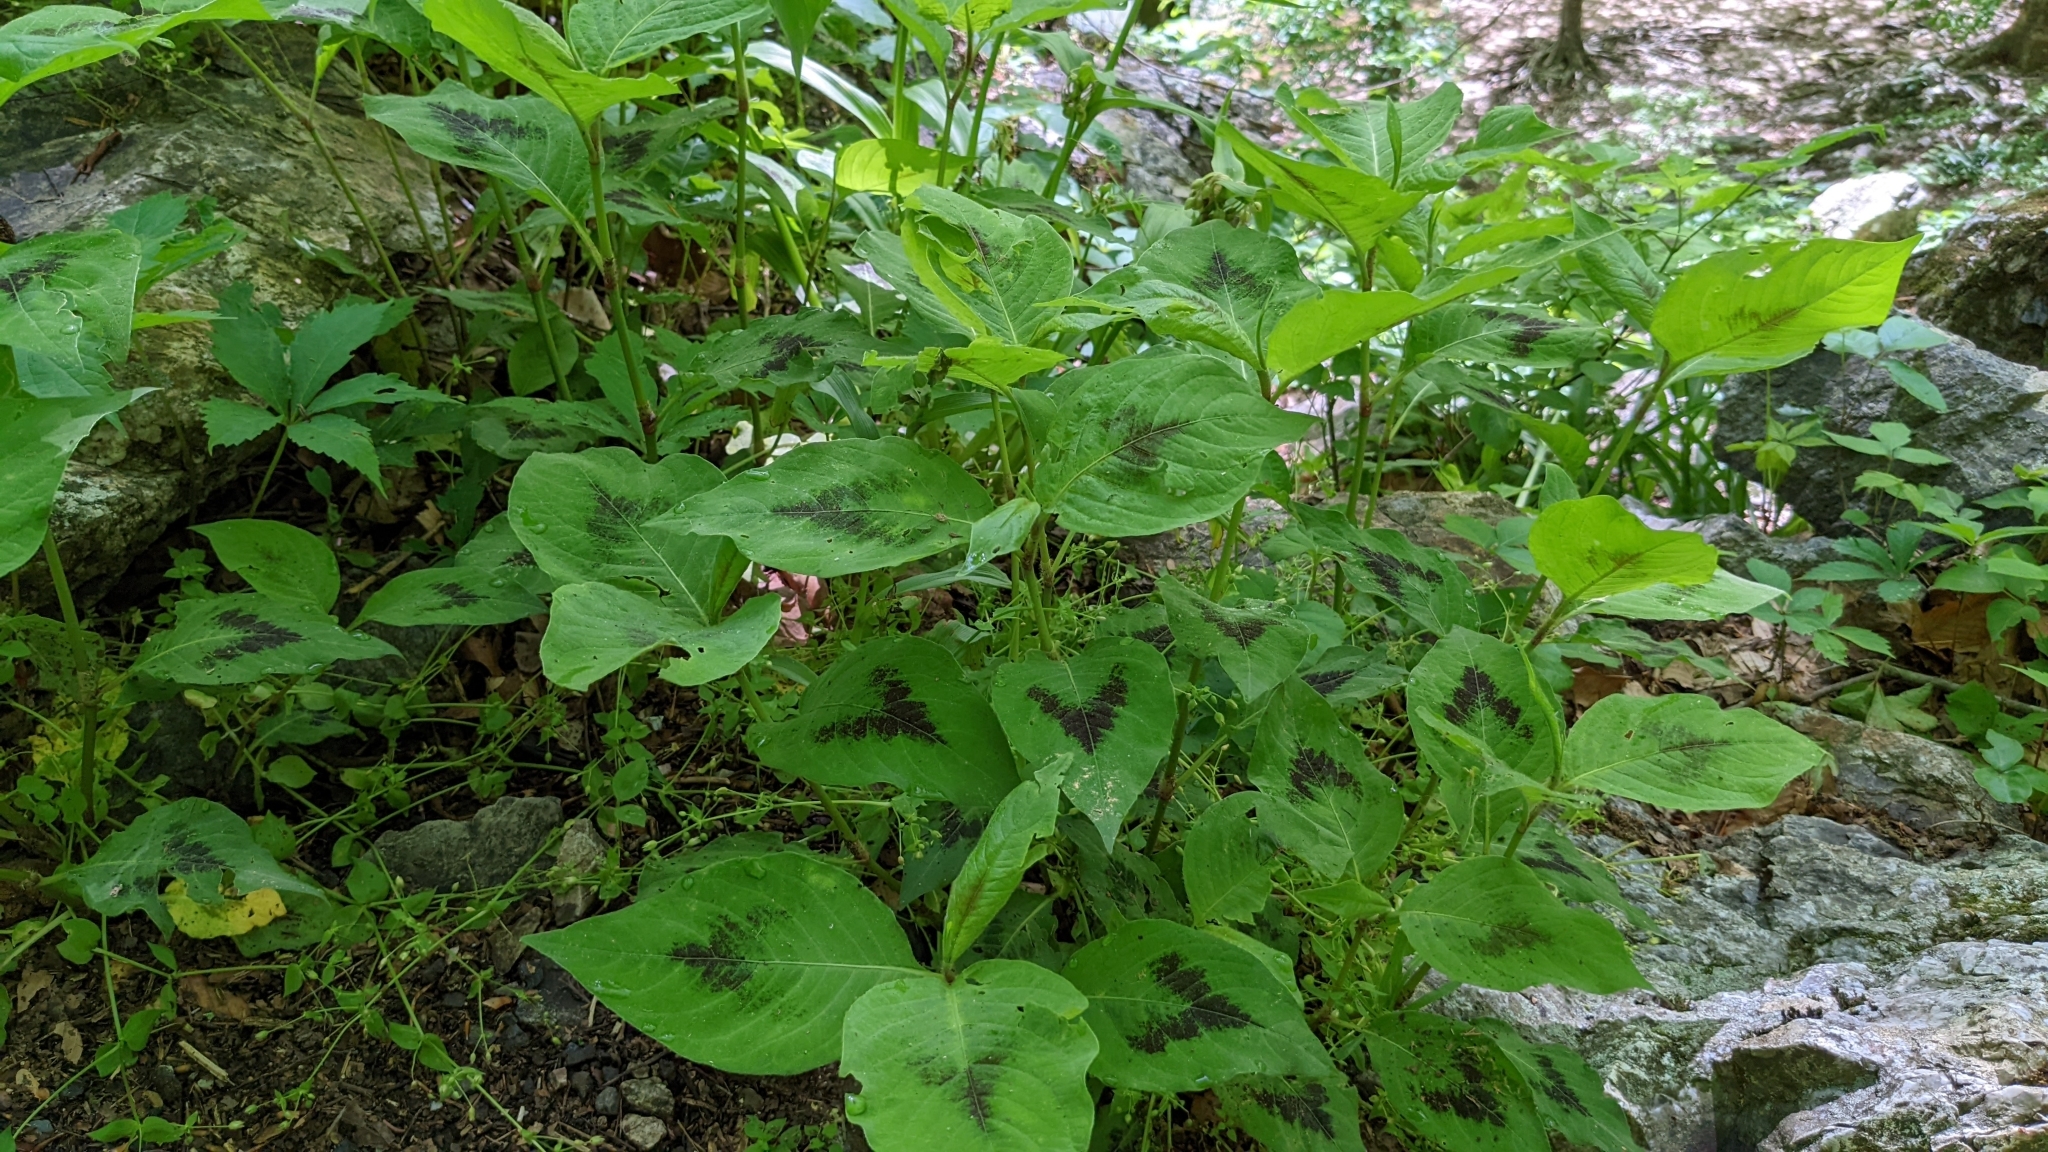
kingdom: Plantae
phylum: Tracheophyta
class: Magnoliopsida
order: Caryophyllales
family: Polygonaceae
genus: Persicaria
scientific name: Persicaria virginiana
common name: Jumpseed
